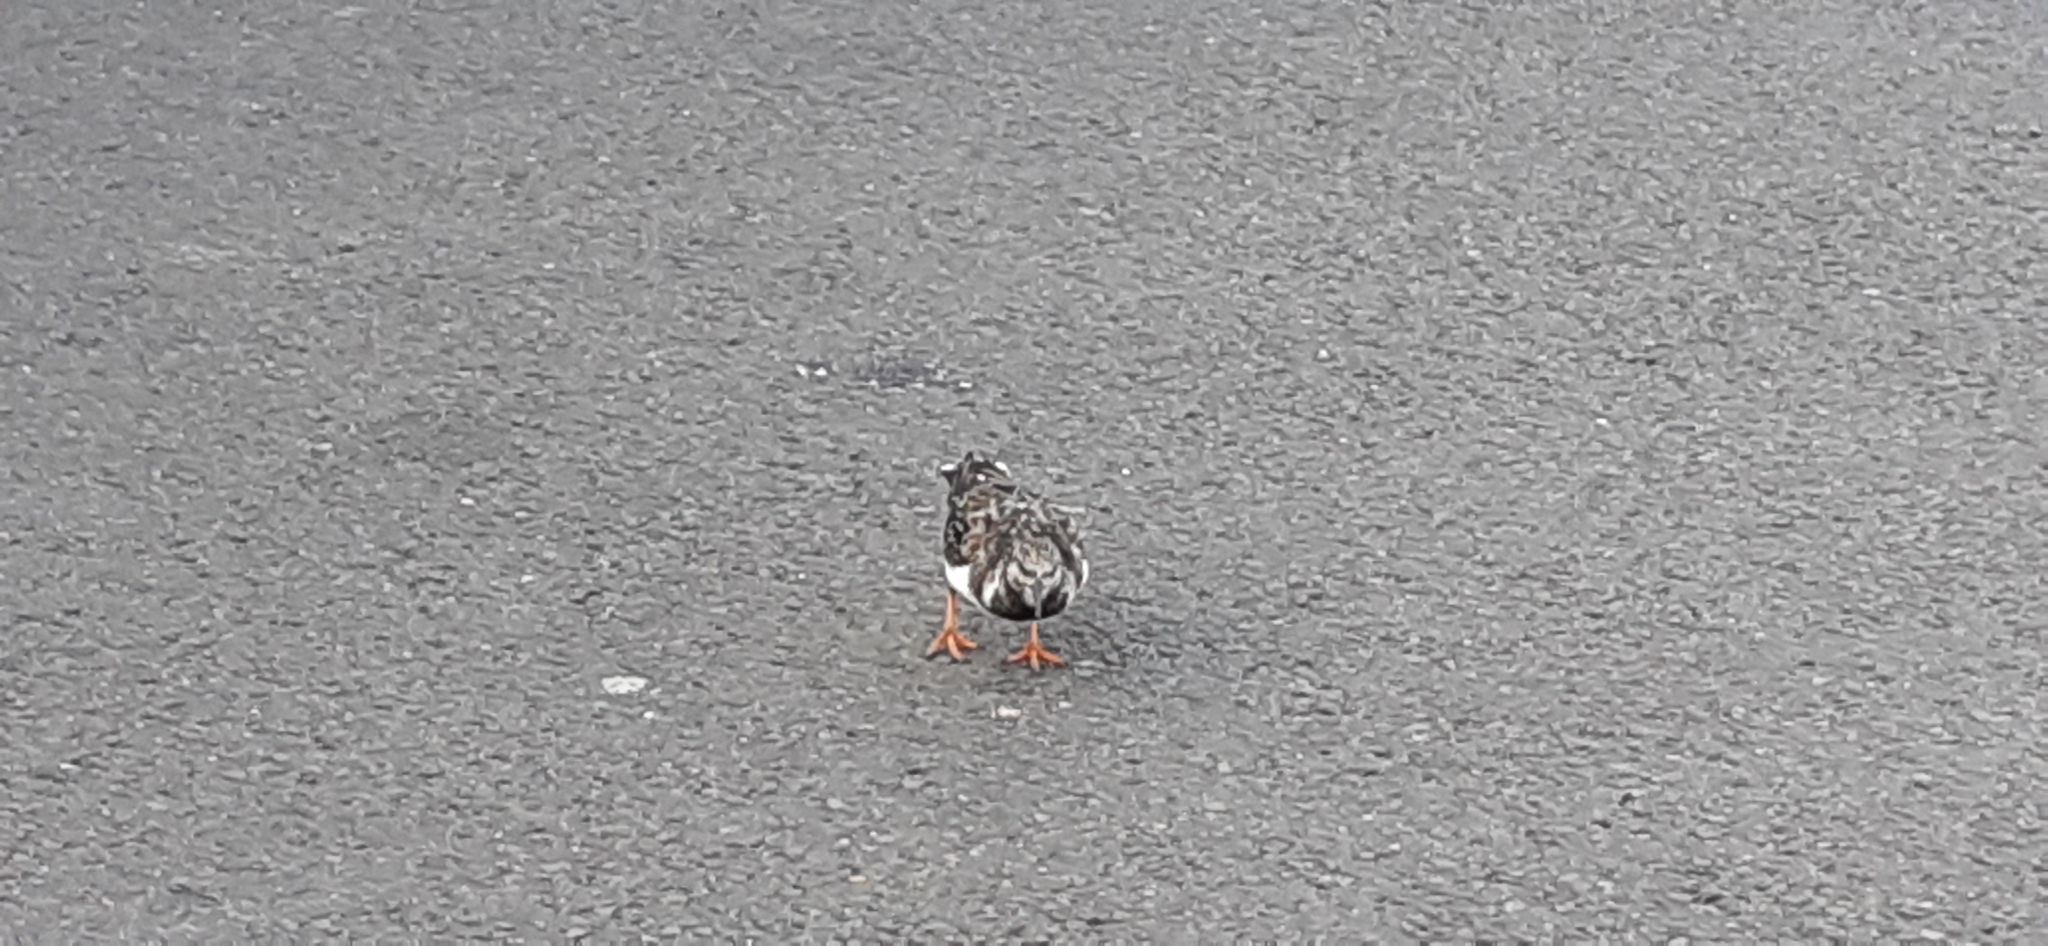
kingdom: Animalia
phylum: Chordata
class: Aves
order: Charadriiformes
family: Scolopacidae
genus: Arenaria
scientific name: Arenaria interpres
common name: Ruddy turnstone
